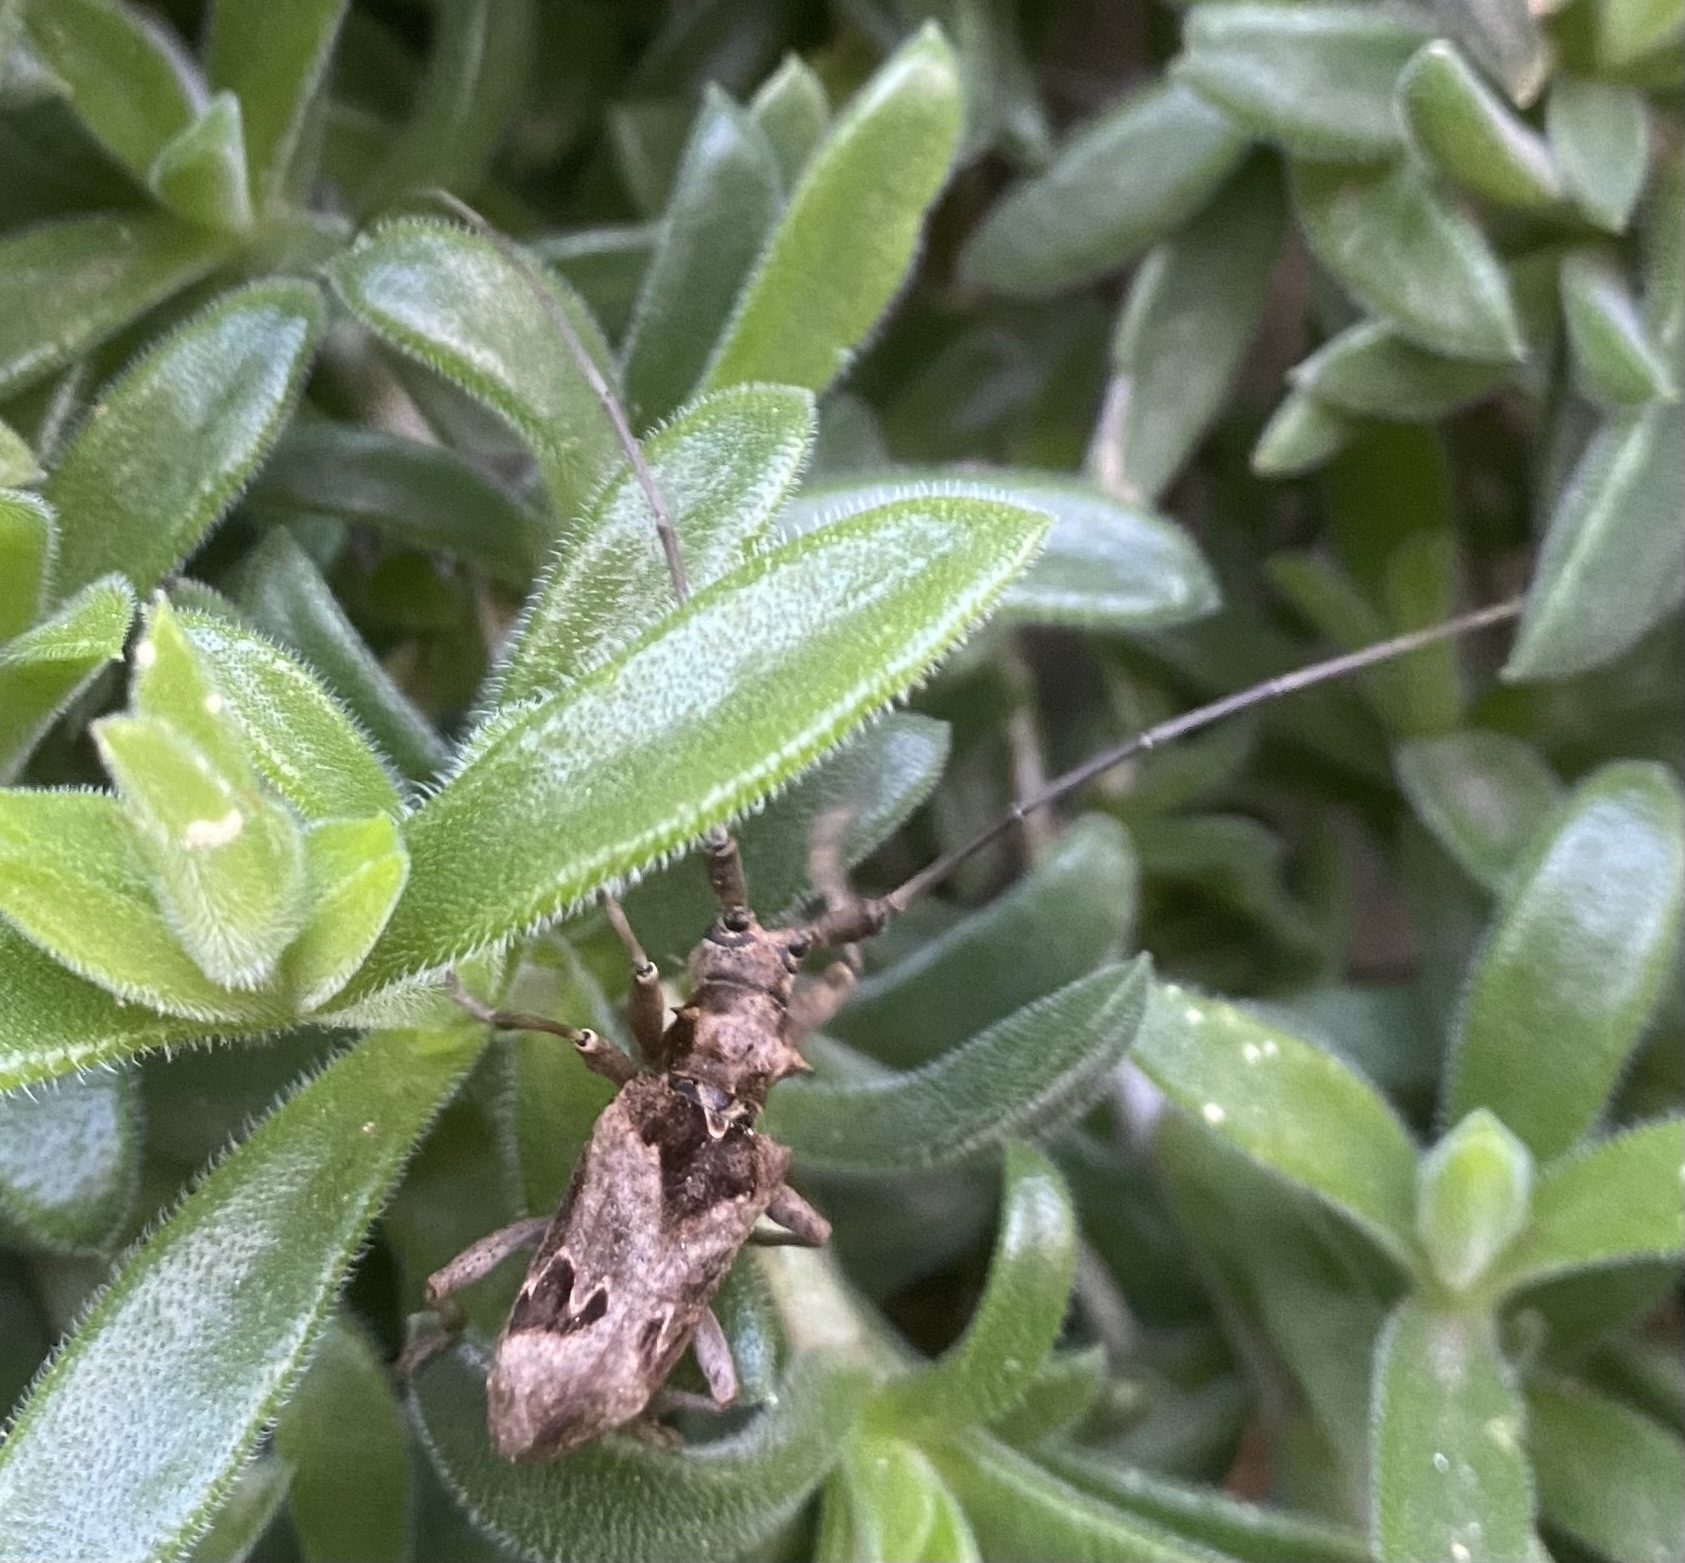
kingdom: Animalia
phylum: Arthropoda
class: Insecta
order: Coleoptera
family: Cerambycidae
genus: Monochamus
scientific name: Monochamus spectabilis
